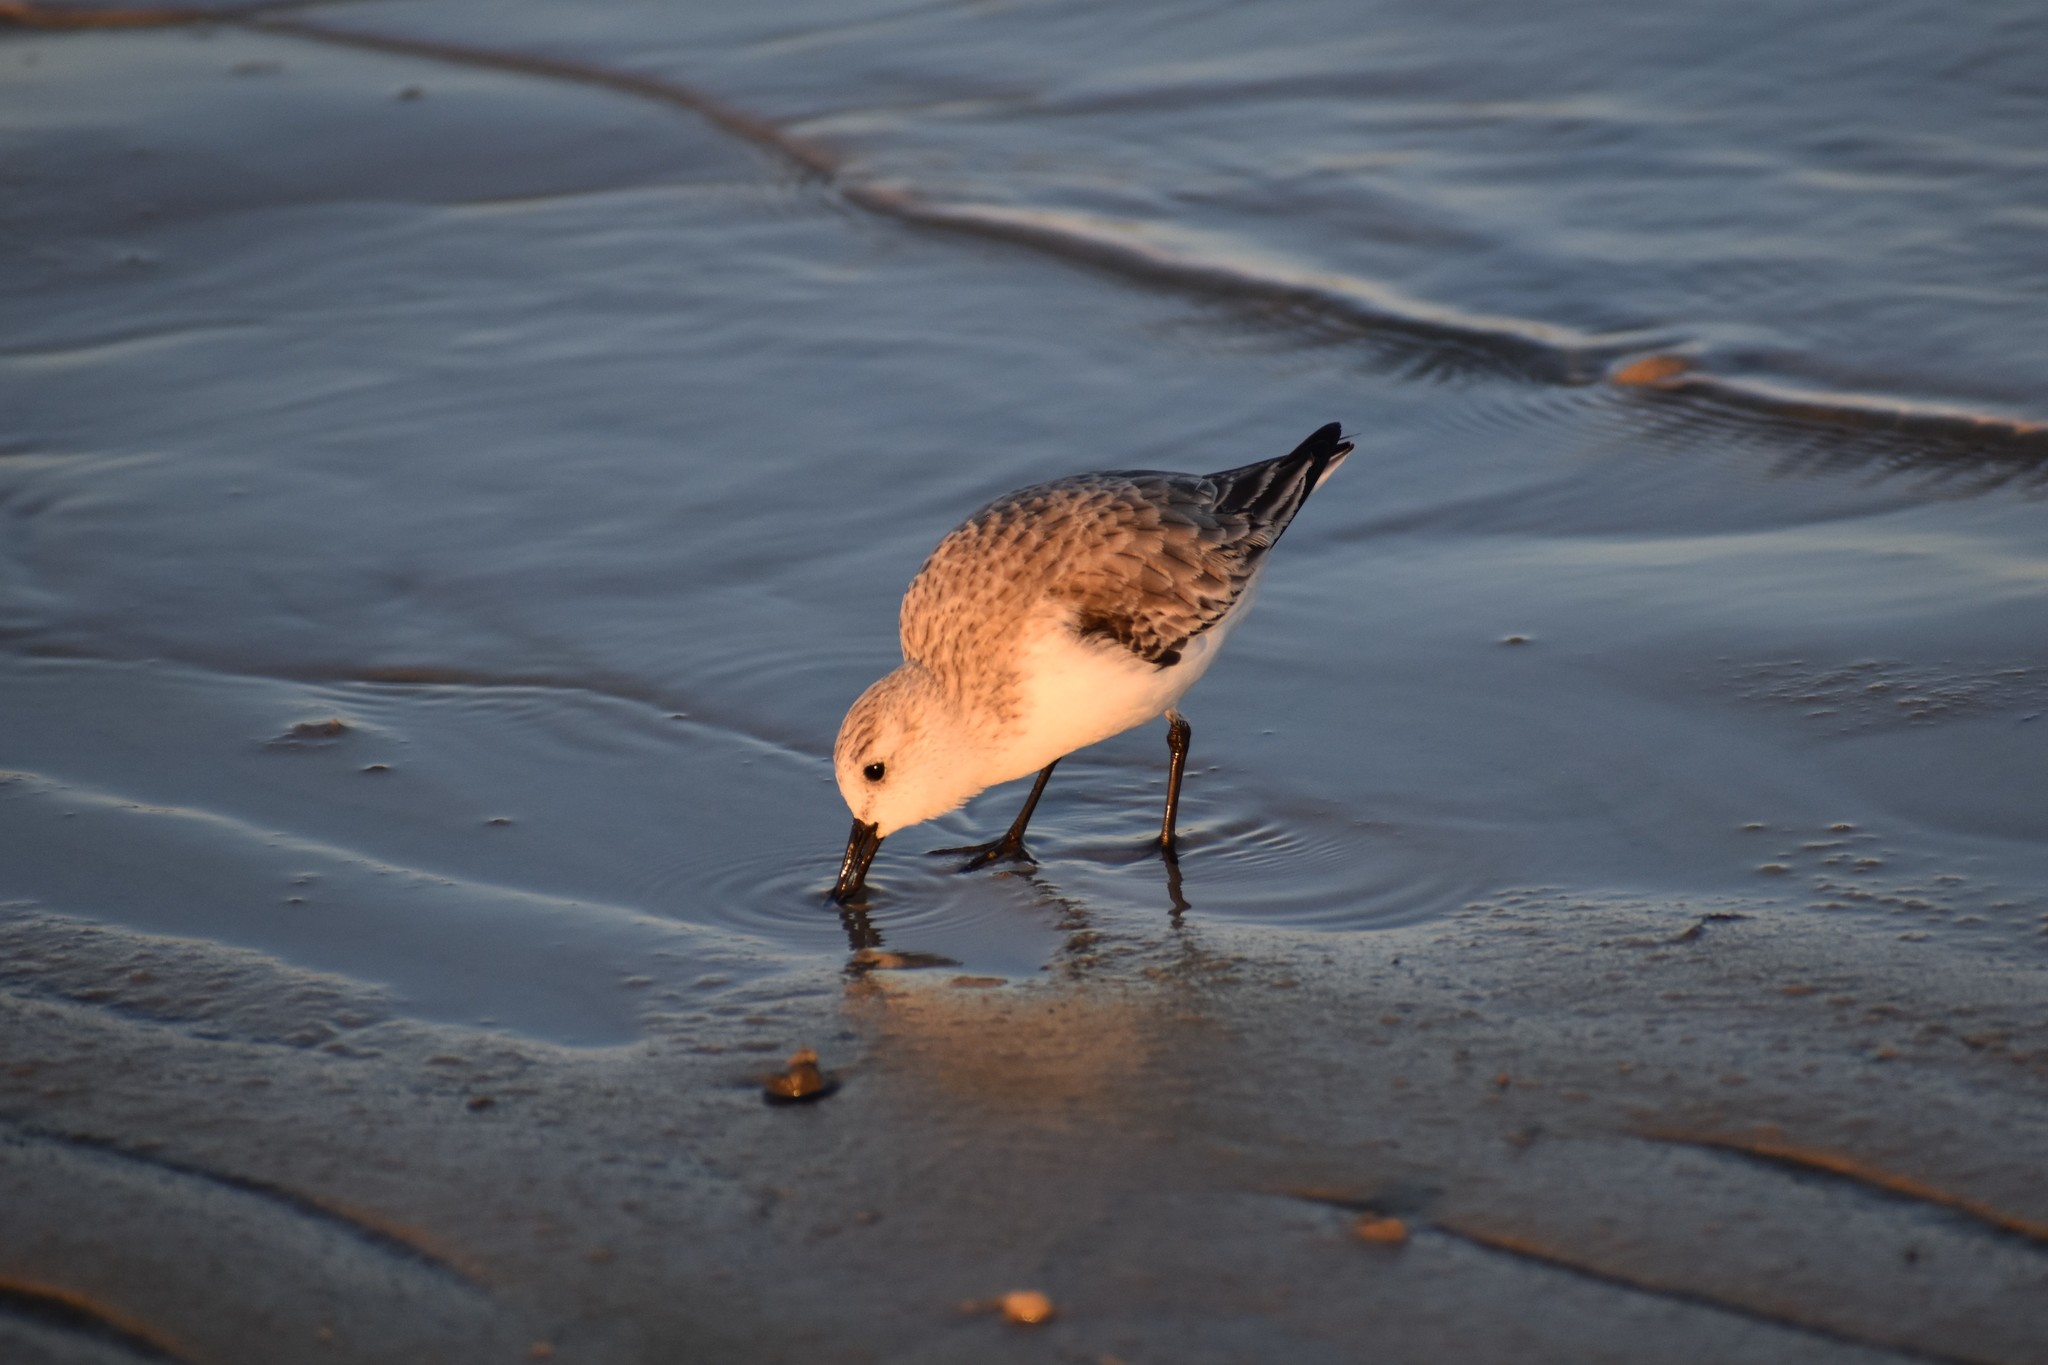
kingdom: Animalia
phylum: Chordata
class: Aves
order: Charadriiformes
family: Scolopacidae
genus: Calidris
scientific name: Calidris alba
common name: Sanderling
